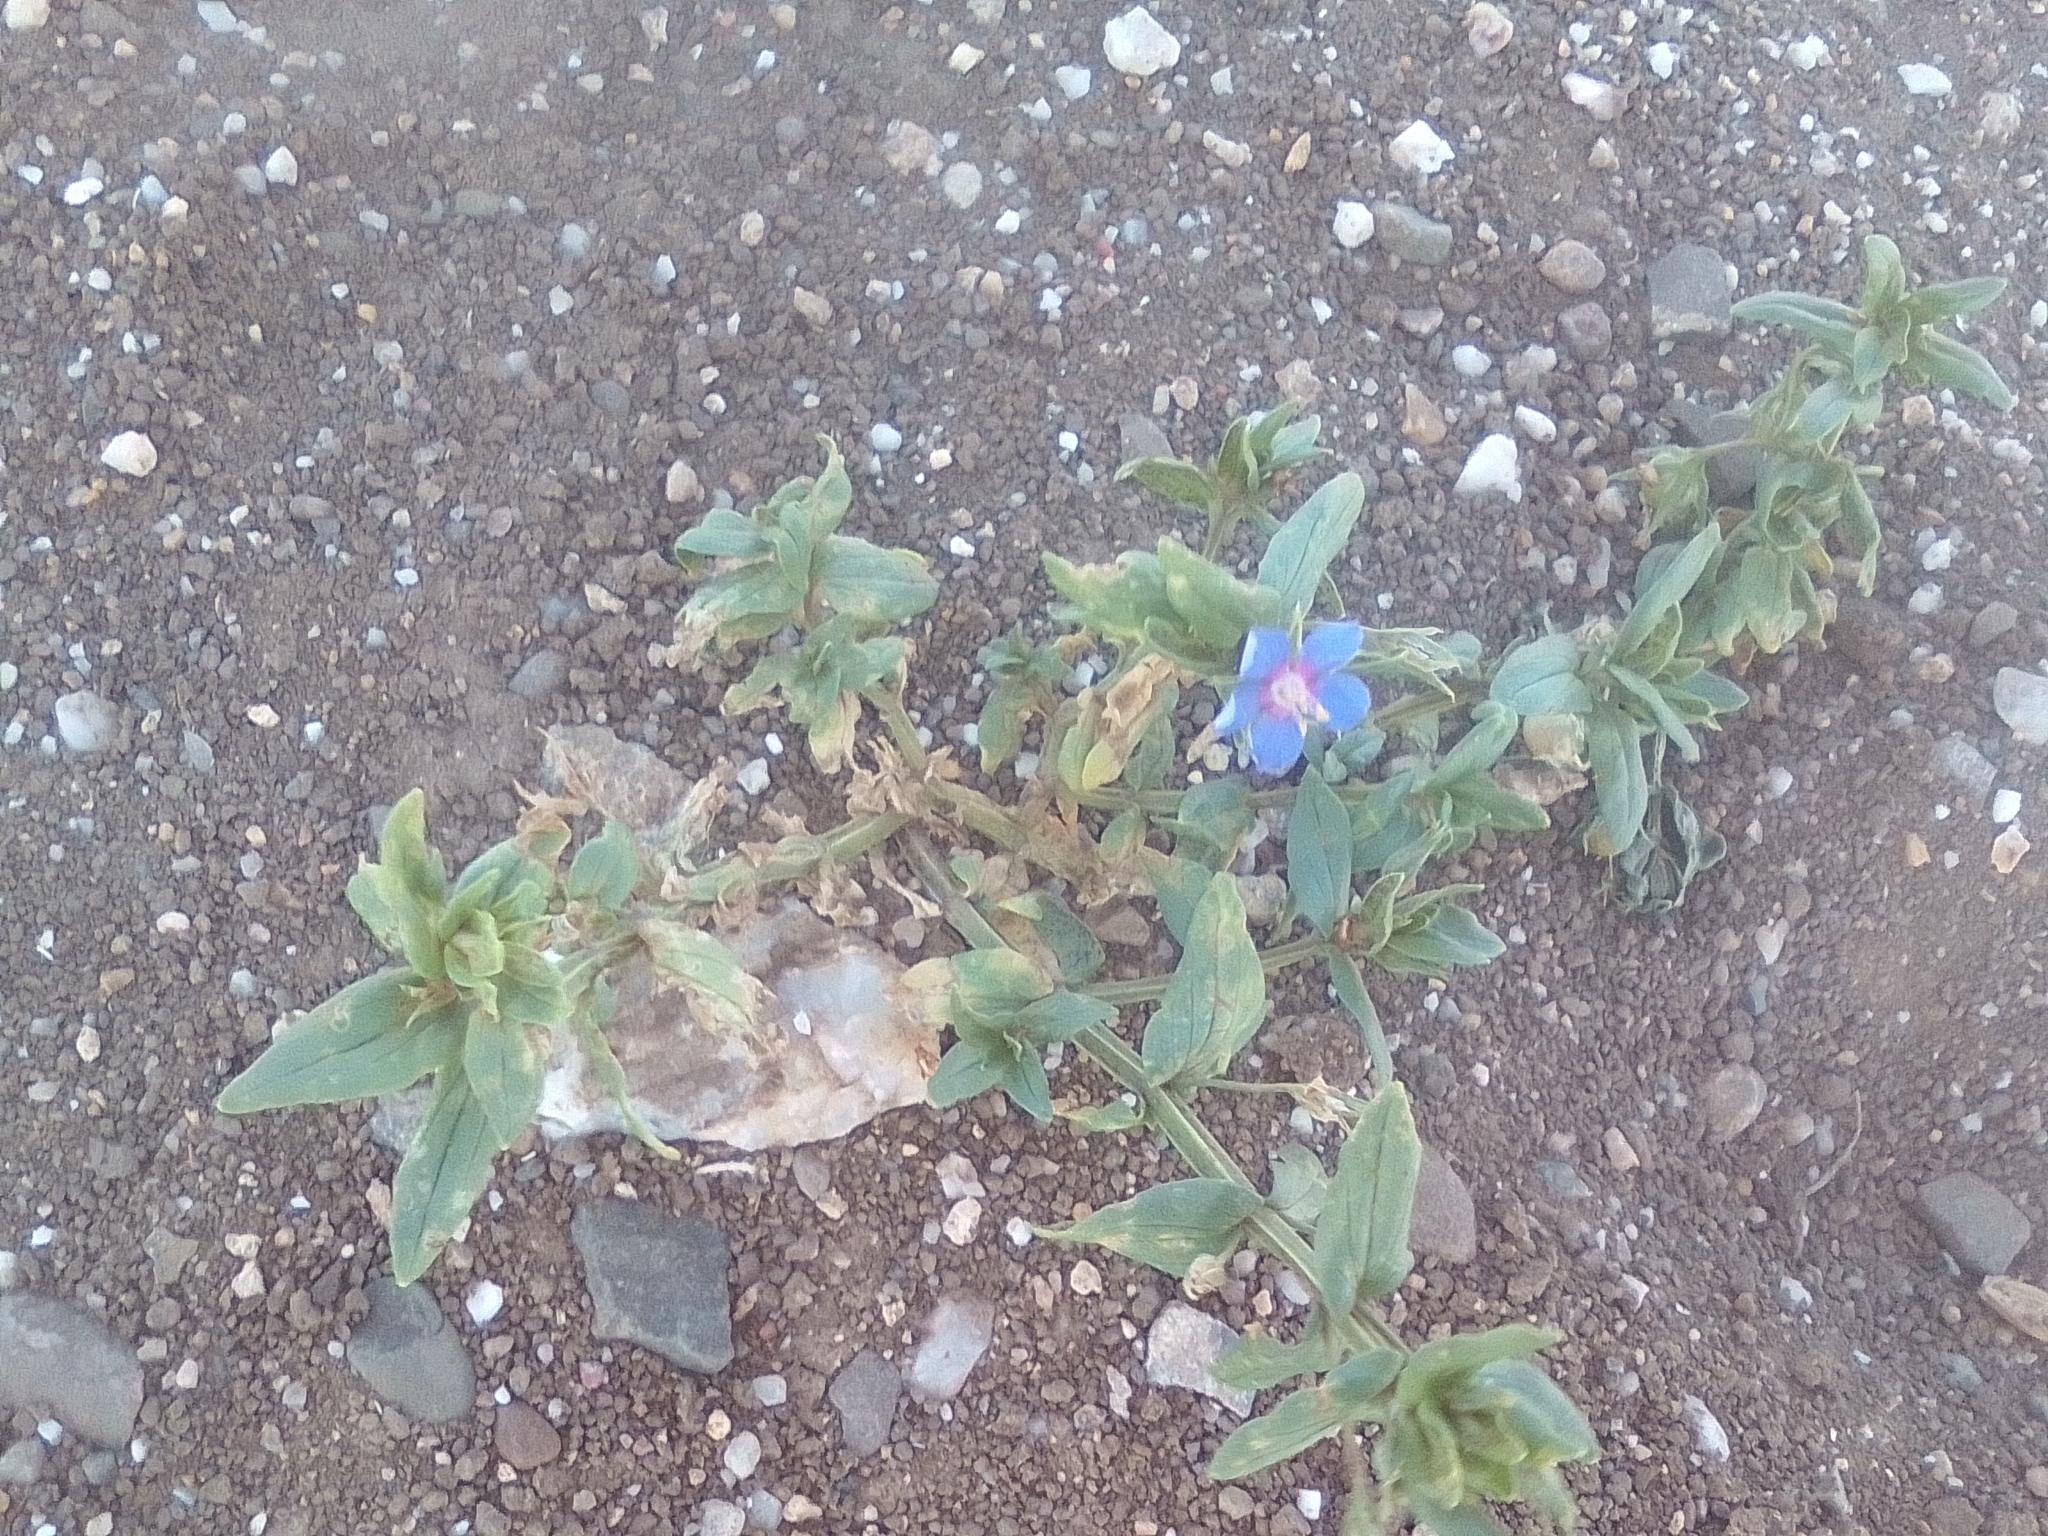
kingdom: Plantae
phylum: Tracheophyta
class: Magnoliopsida
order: Ericales
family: Primulaceae
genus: Lysimachia
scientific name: Lysimachia foemina
